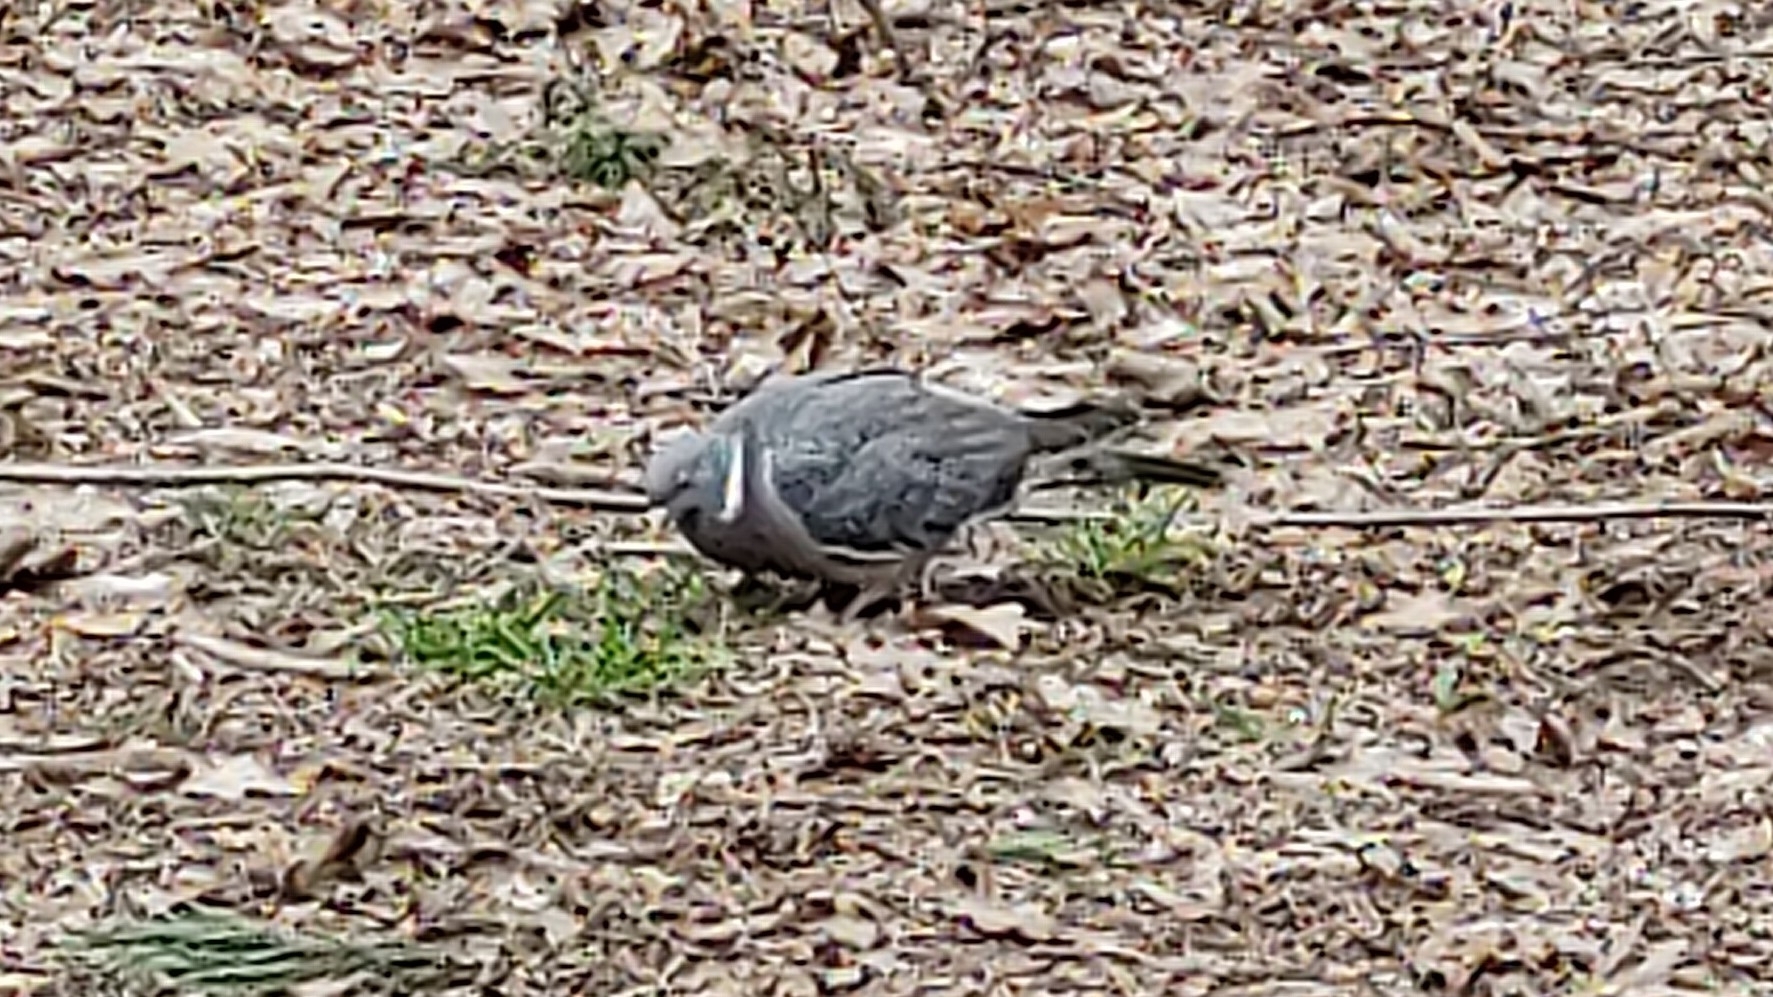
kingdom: Animalia
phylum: Chordata
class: Aves
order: Columbiformes
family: Columbidae
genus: Columba
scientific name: Columba palumbus
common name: Common wood pigeon
